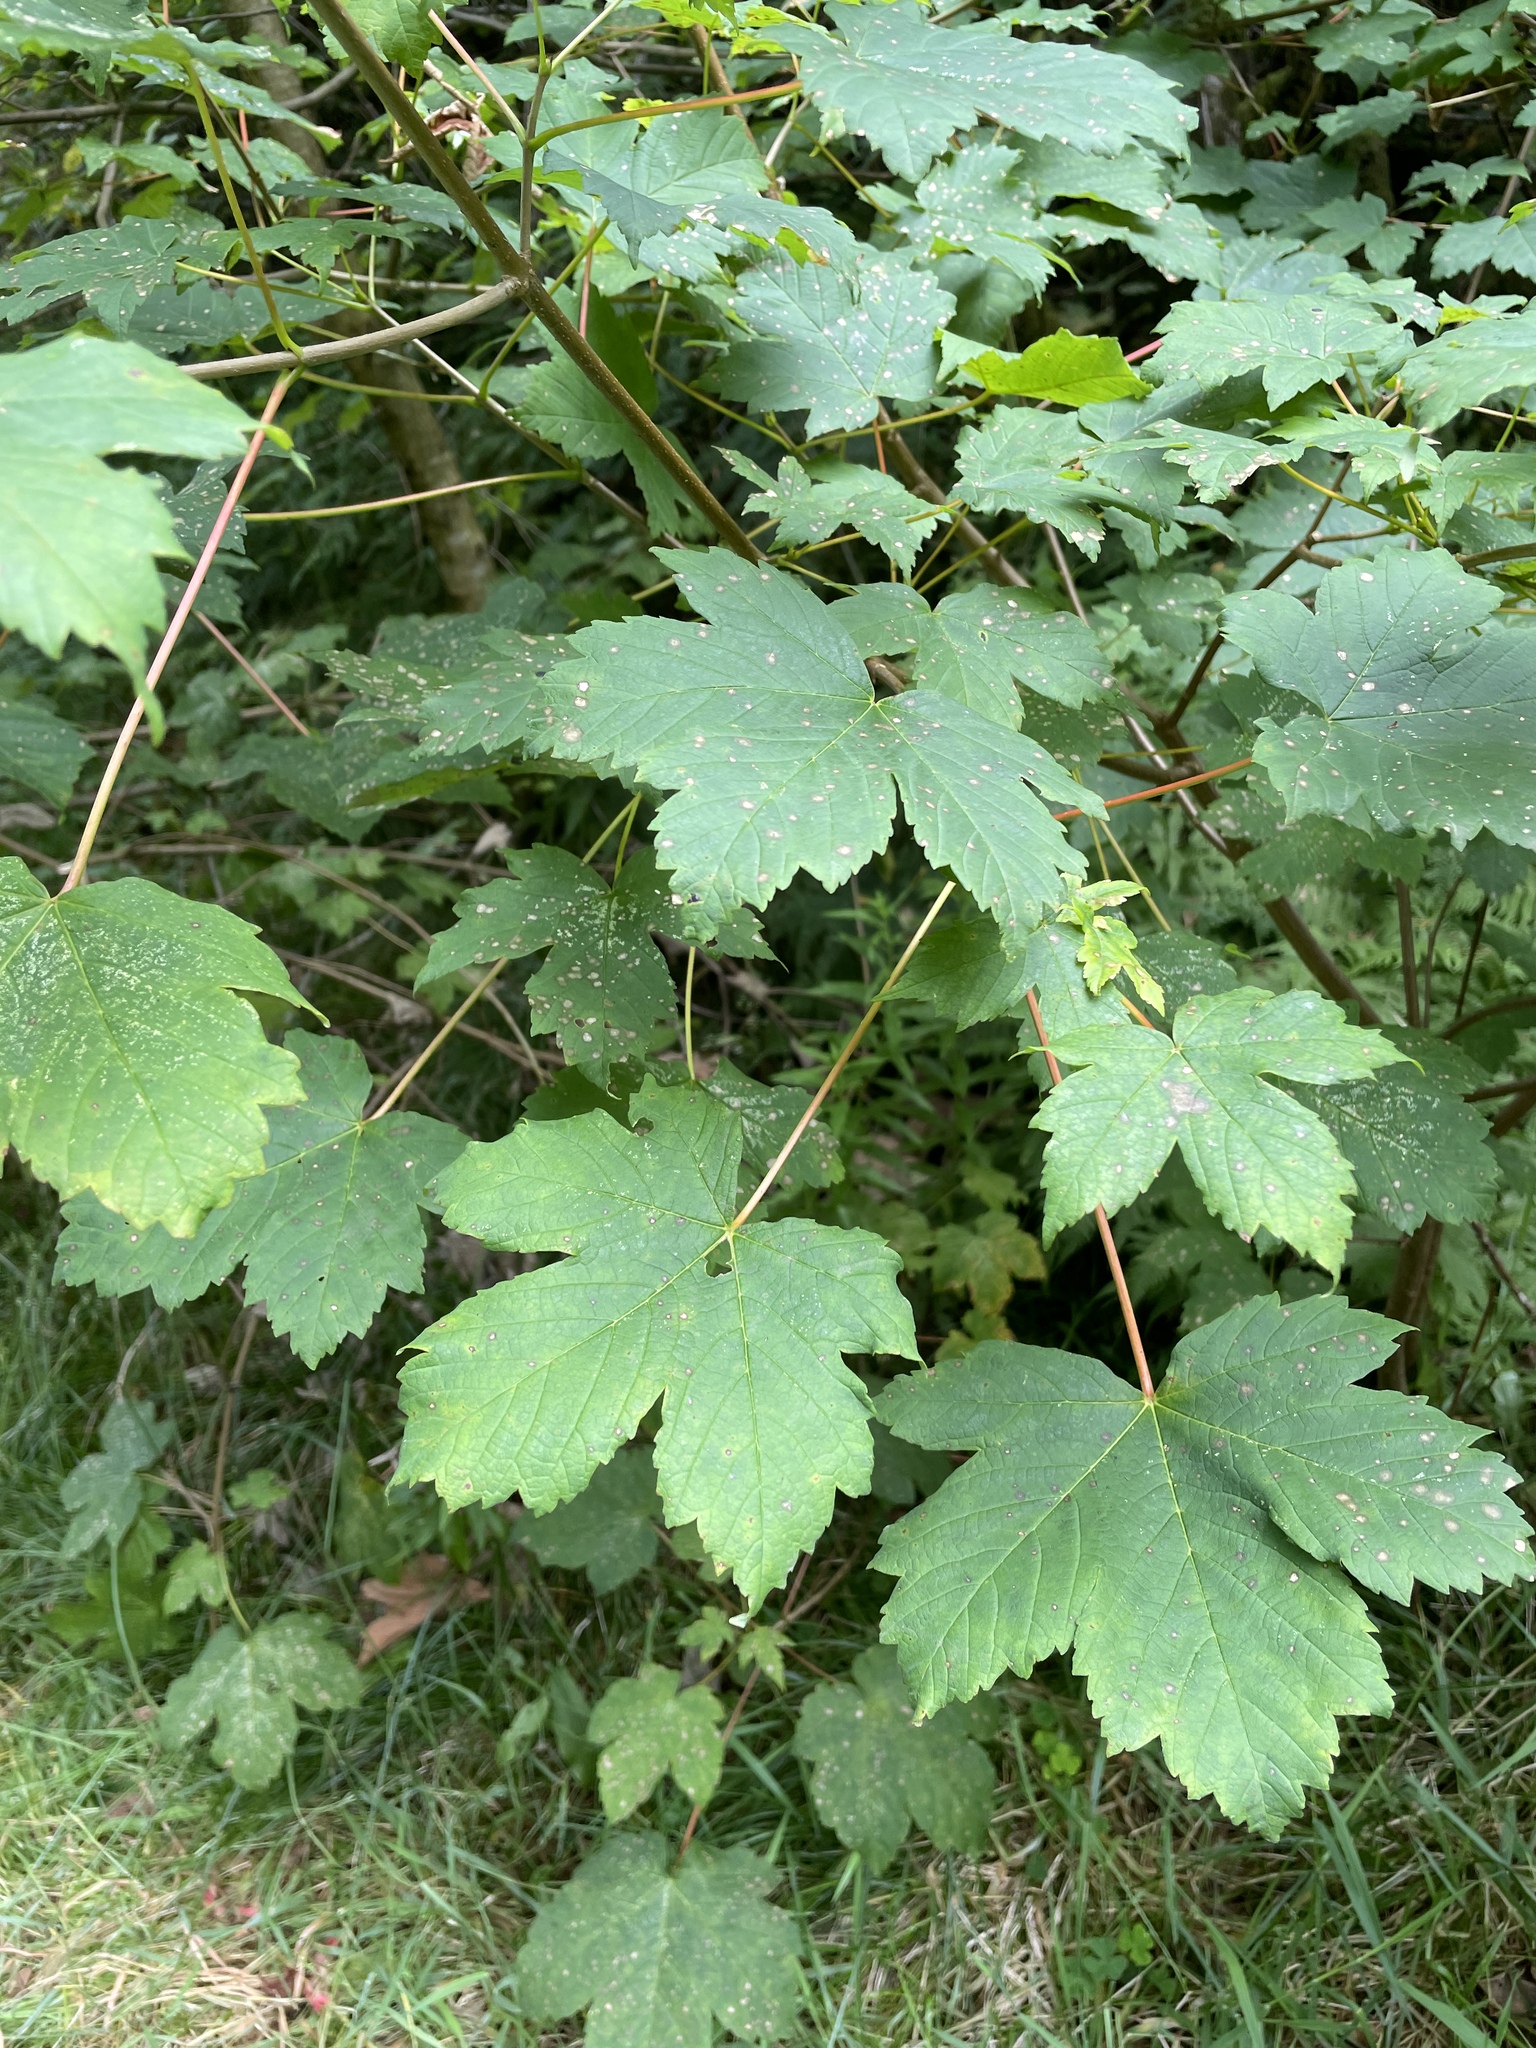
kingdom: Plantae
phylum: Tracheophyta
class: Magnoliopsida
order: Sapindales
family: Sapindaceae
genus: Acer
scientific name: Acer pseudoplatanus
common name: Sycamore
